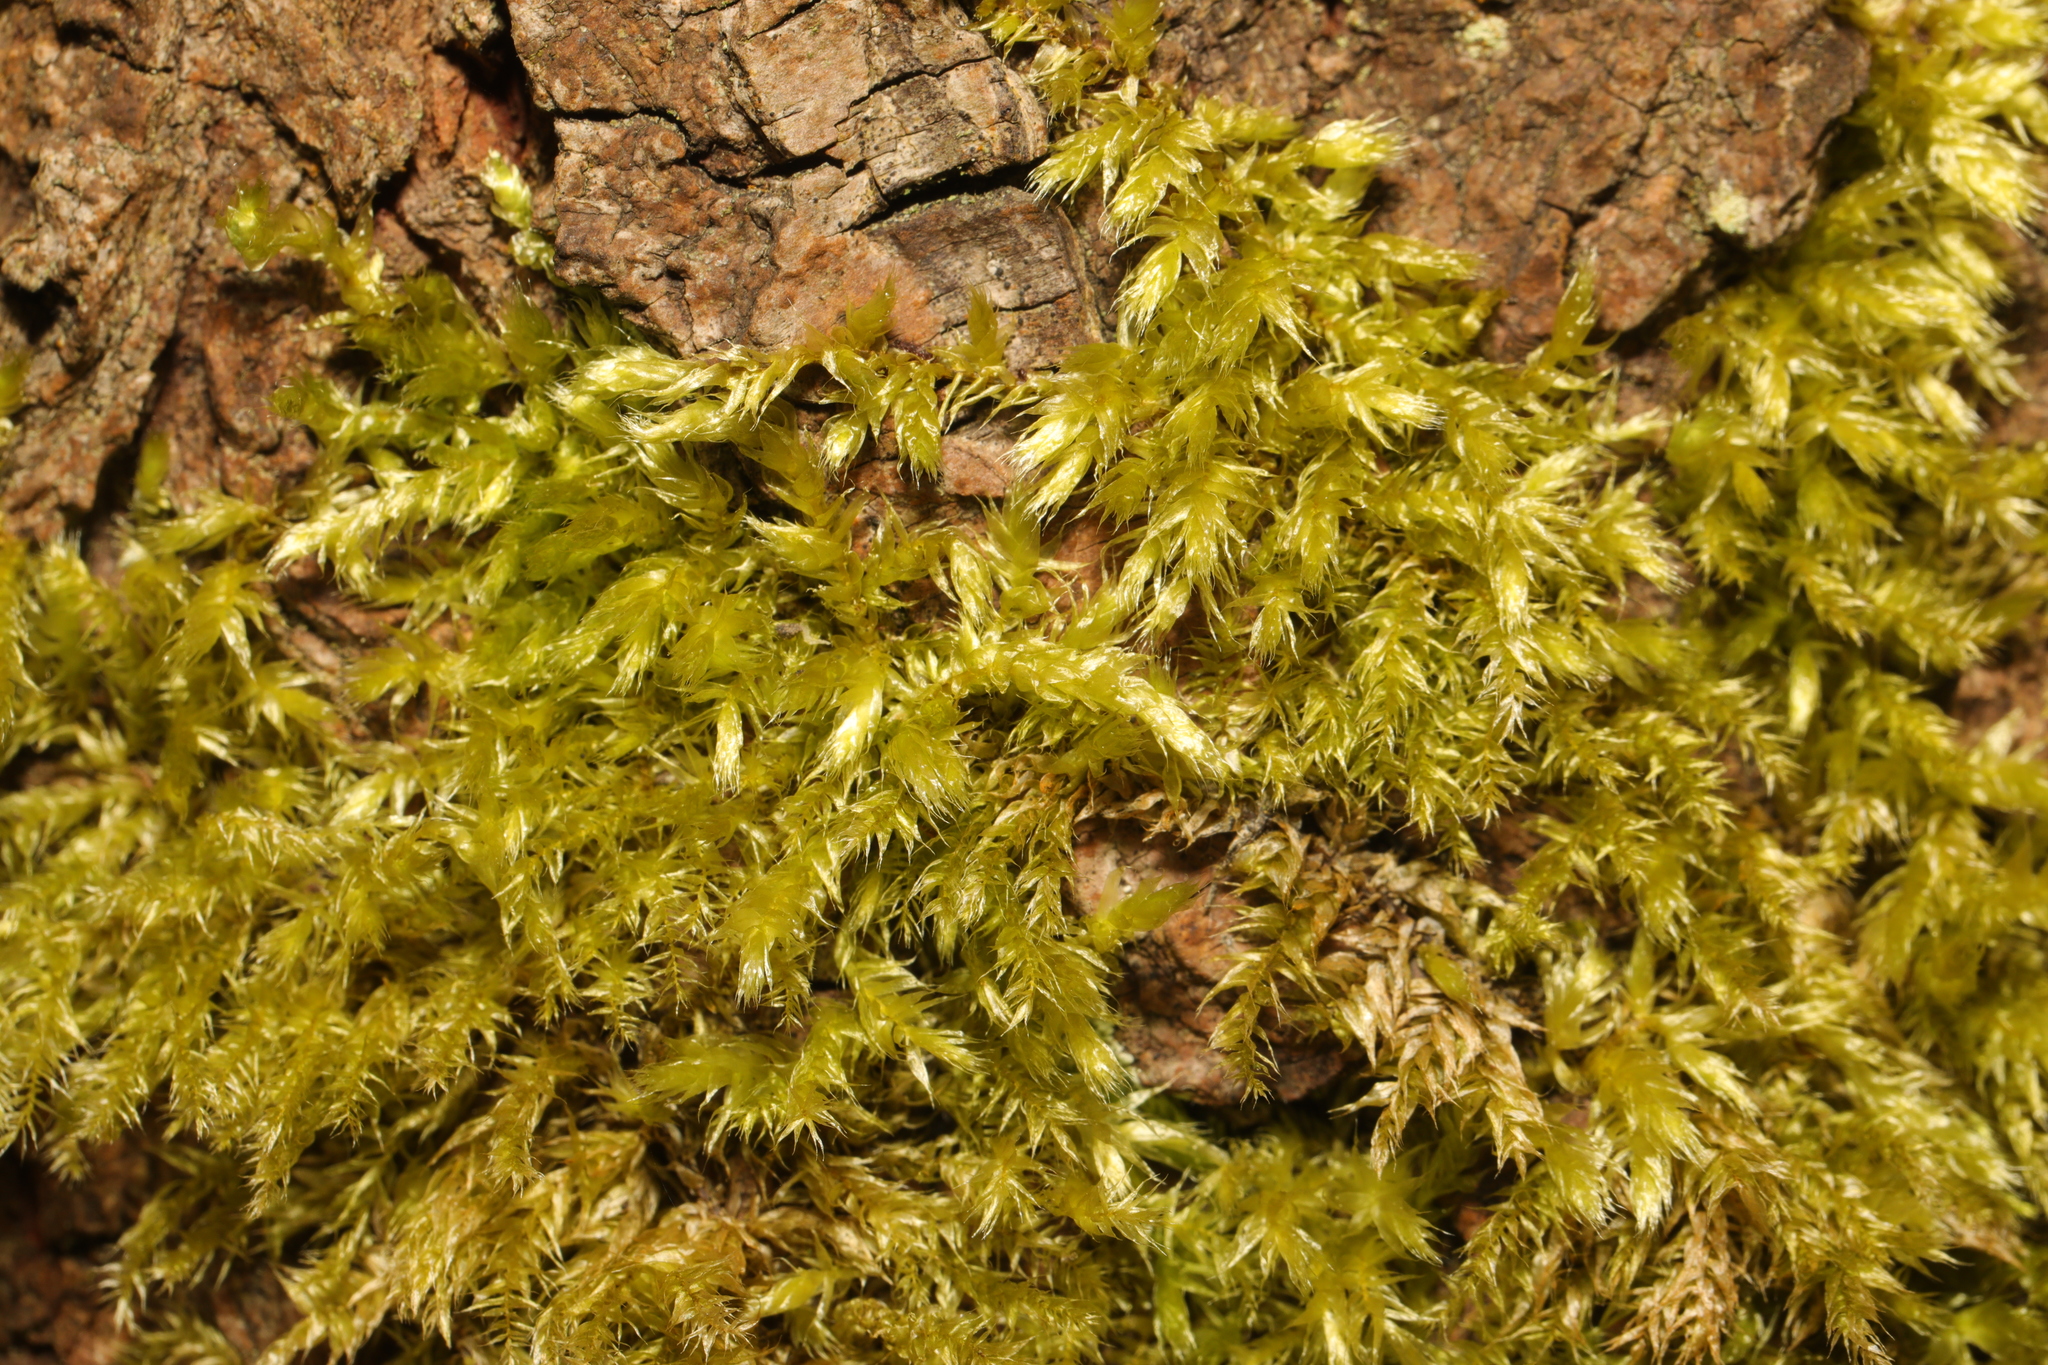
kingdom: Plantae
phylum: Bryophyta
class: Bryopsida
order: Hypnales
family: Brachytheciaceae
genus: Brachythecium
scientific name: Brachythecium rutabulum
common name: Rough-stalked feather-moss
